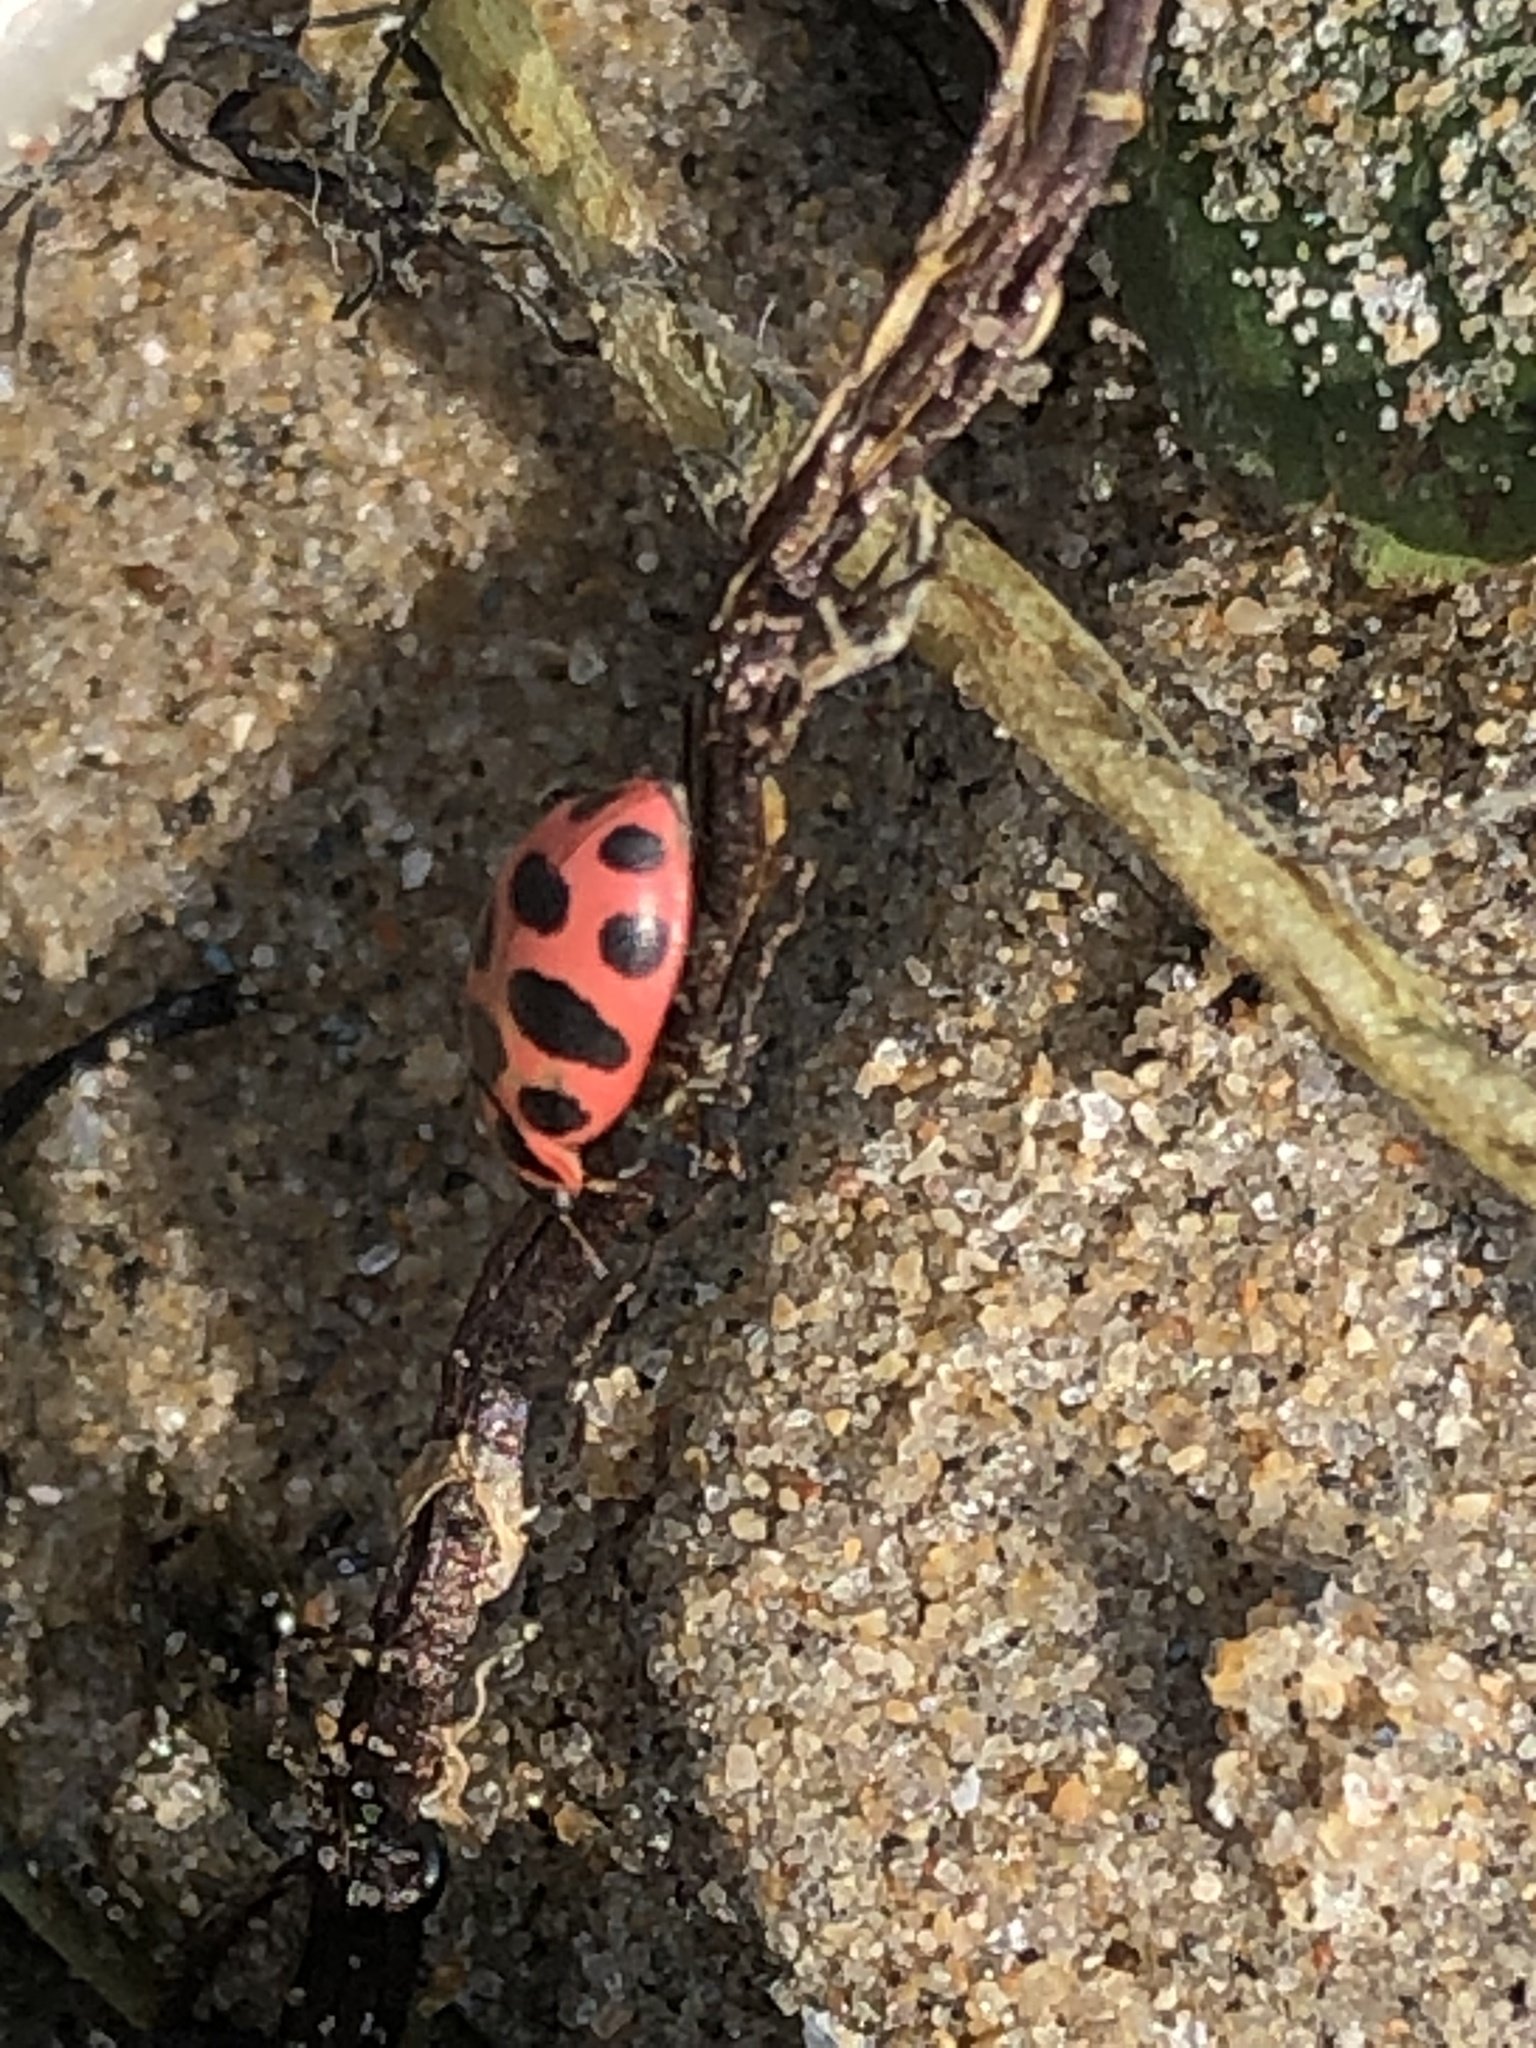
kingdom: Animalia
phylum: Arthropoda
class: Insecta
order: Coleoptera
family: Coccinellidae
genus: Coleomegilla
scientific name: Coleomegilla maculata
